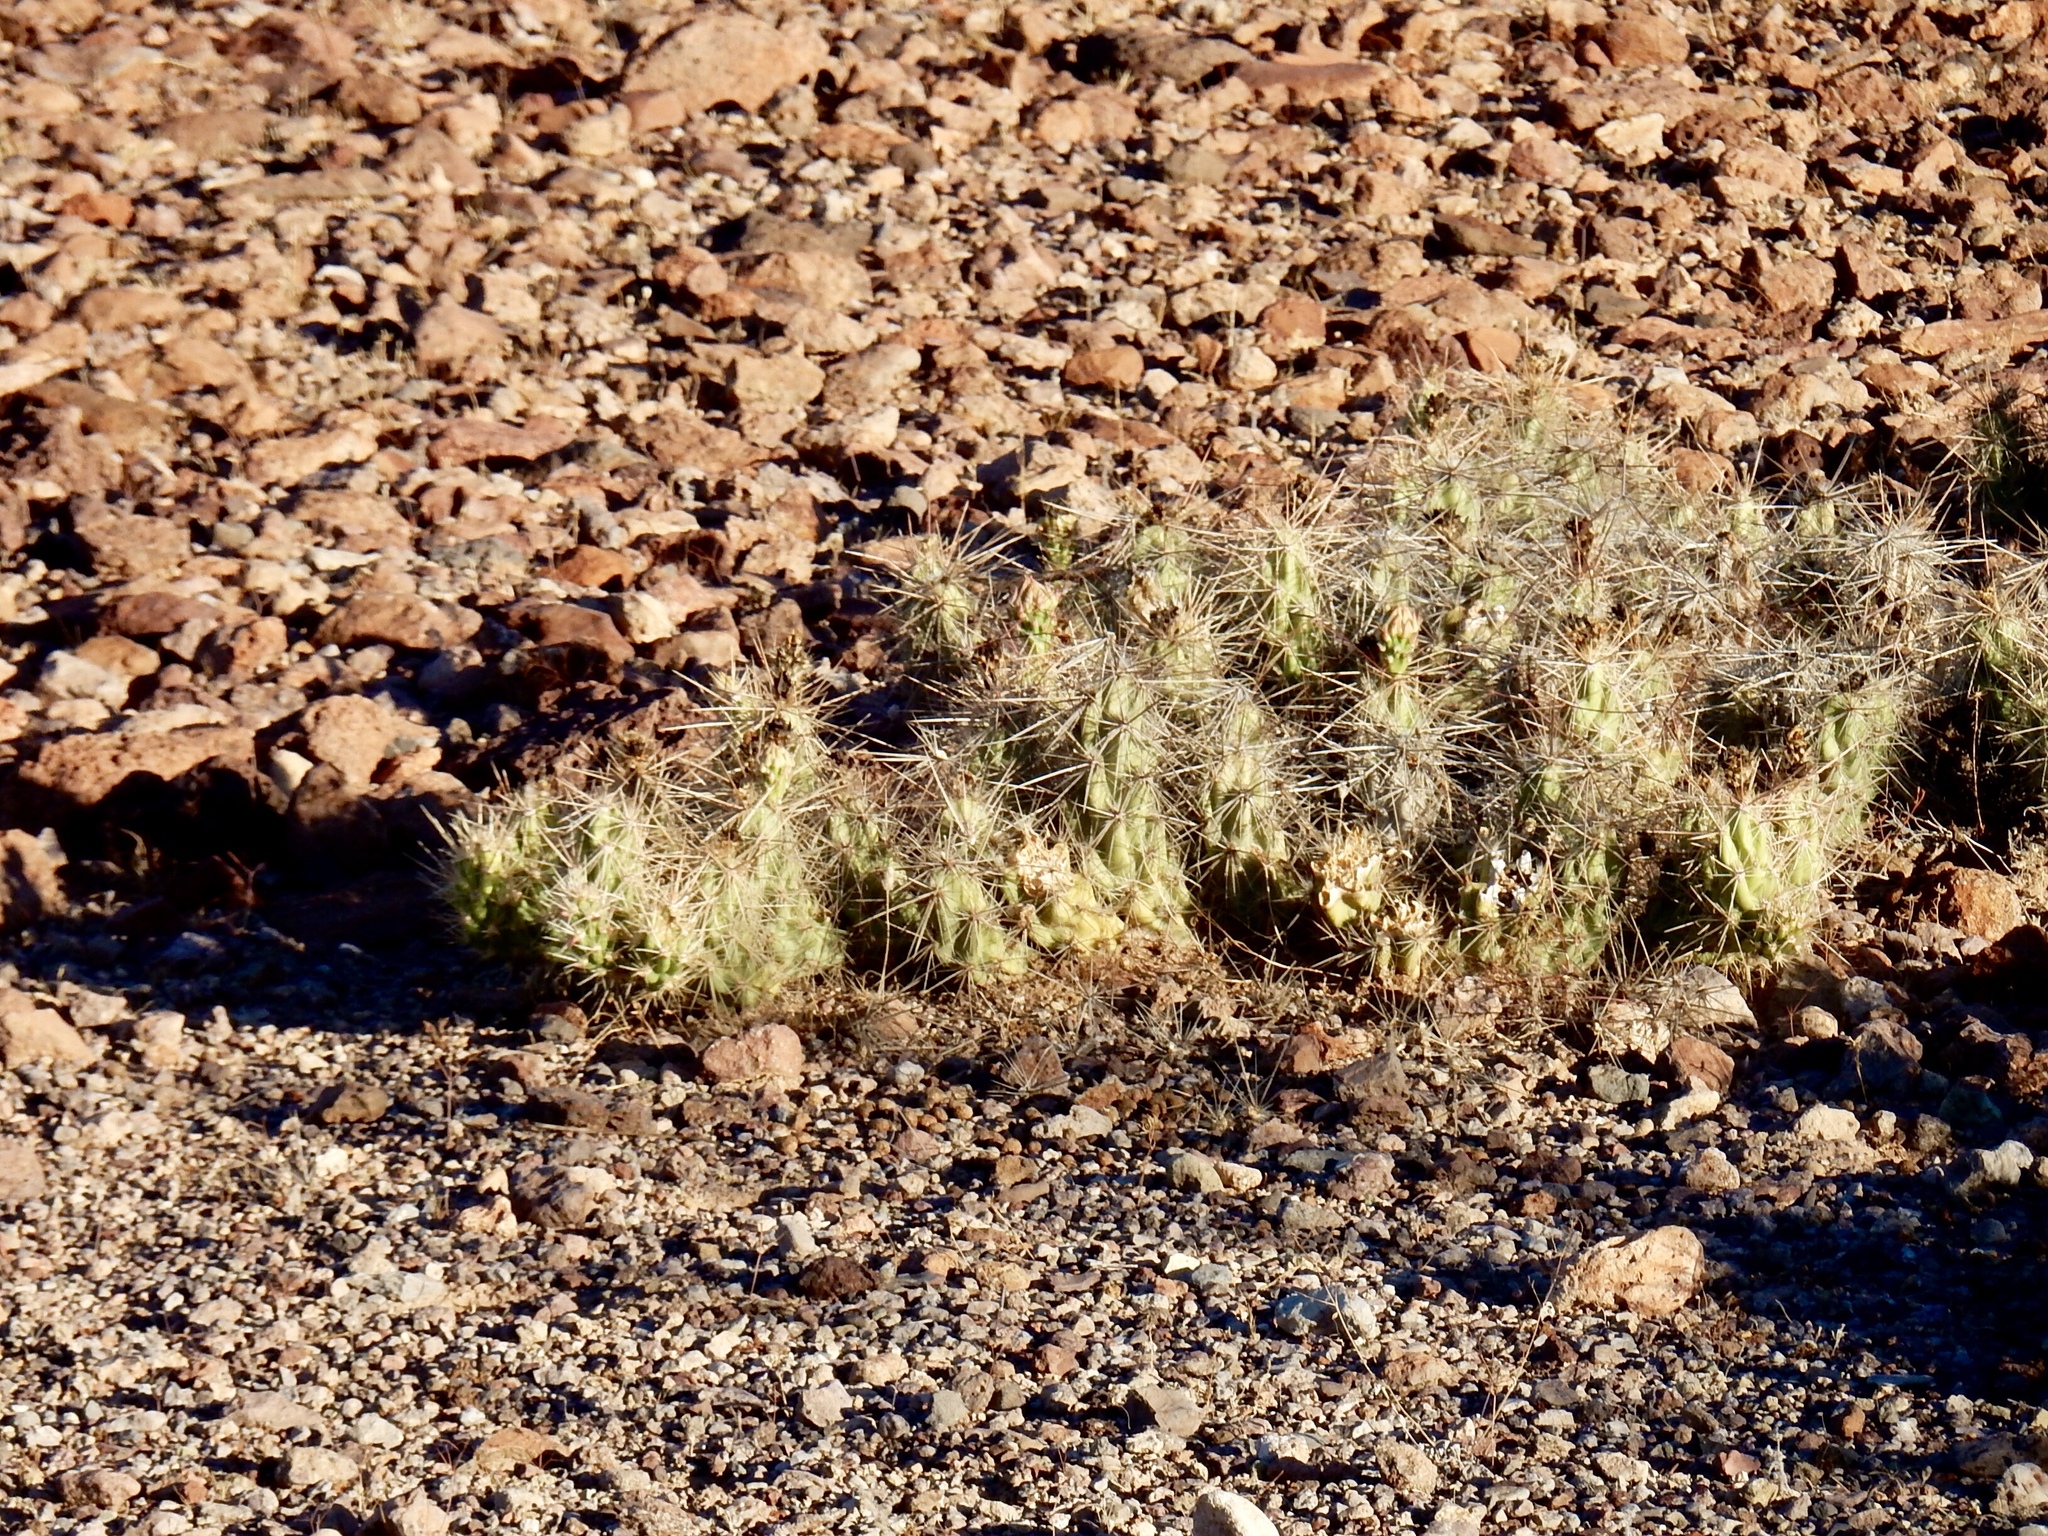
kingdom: Plantae
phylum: Tracheophyta
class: Magnoliopsida
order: Caryophyllales
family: Cactaceae
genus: Grusonia
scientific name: Grusonia emoryi
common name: Stanly's club cholla
